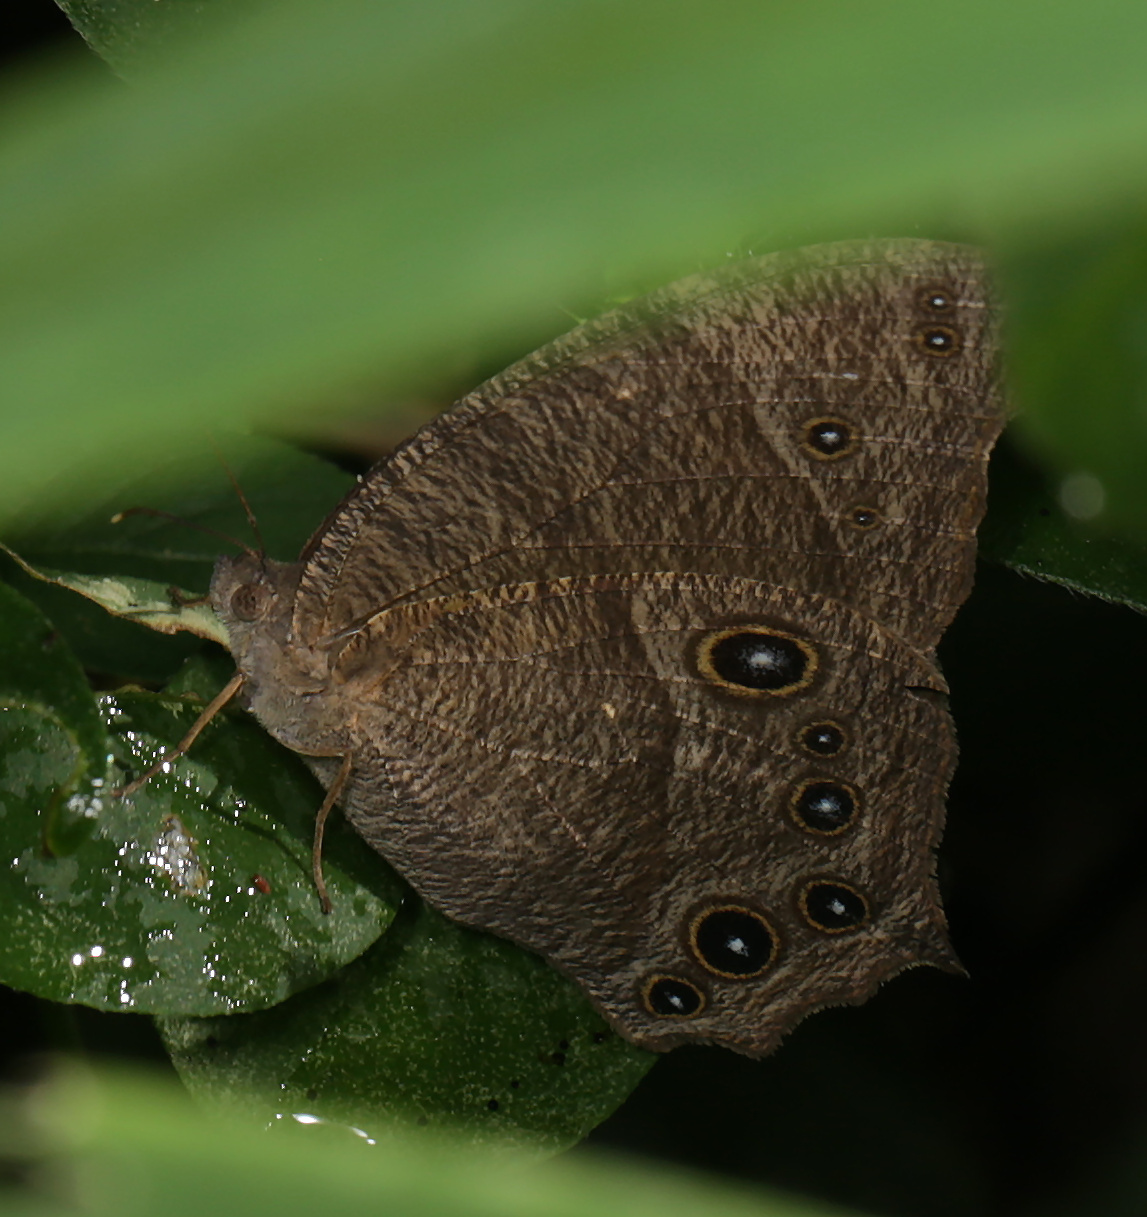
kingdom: Animalia
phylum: Arthropoda
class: Insecta
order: Lepidoptera
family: Nymphalidae
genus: Melanitis
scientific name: Melanitis leda
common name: Twilight brown
